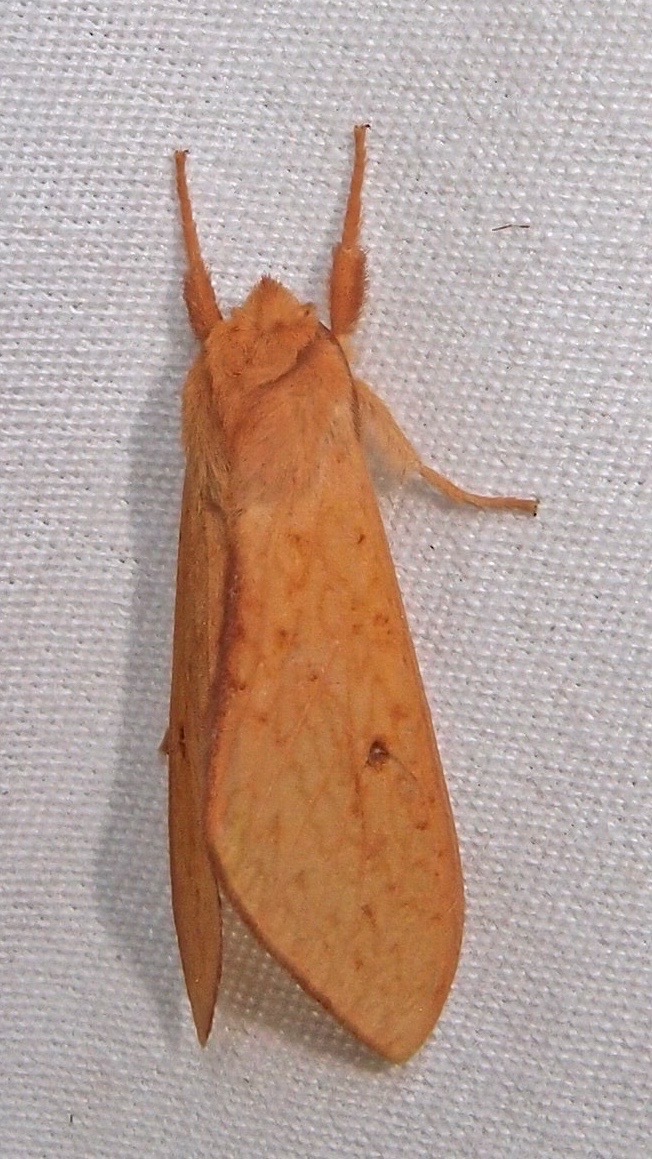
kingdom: Animalia
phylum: Arthropoda
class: Insecta
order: Lepidoptera
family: Erebidae
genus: Lophocampa
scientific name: Lophocampa pura
